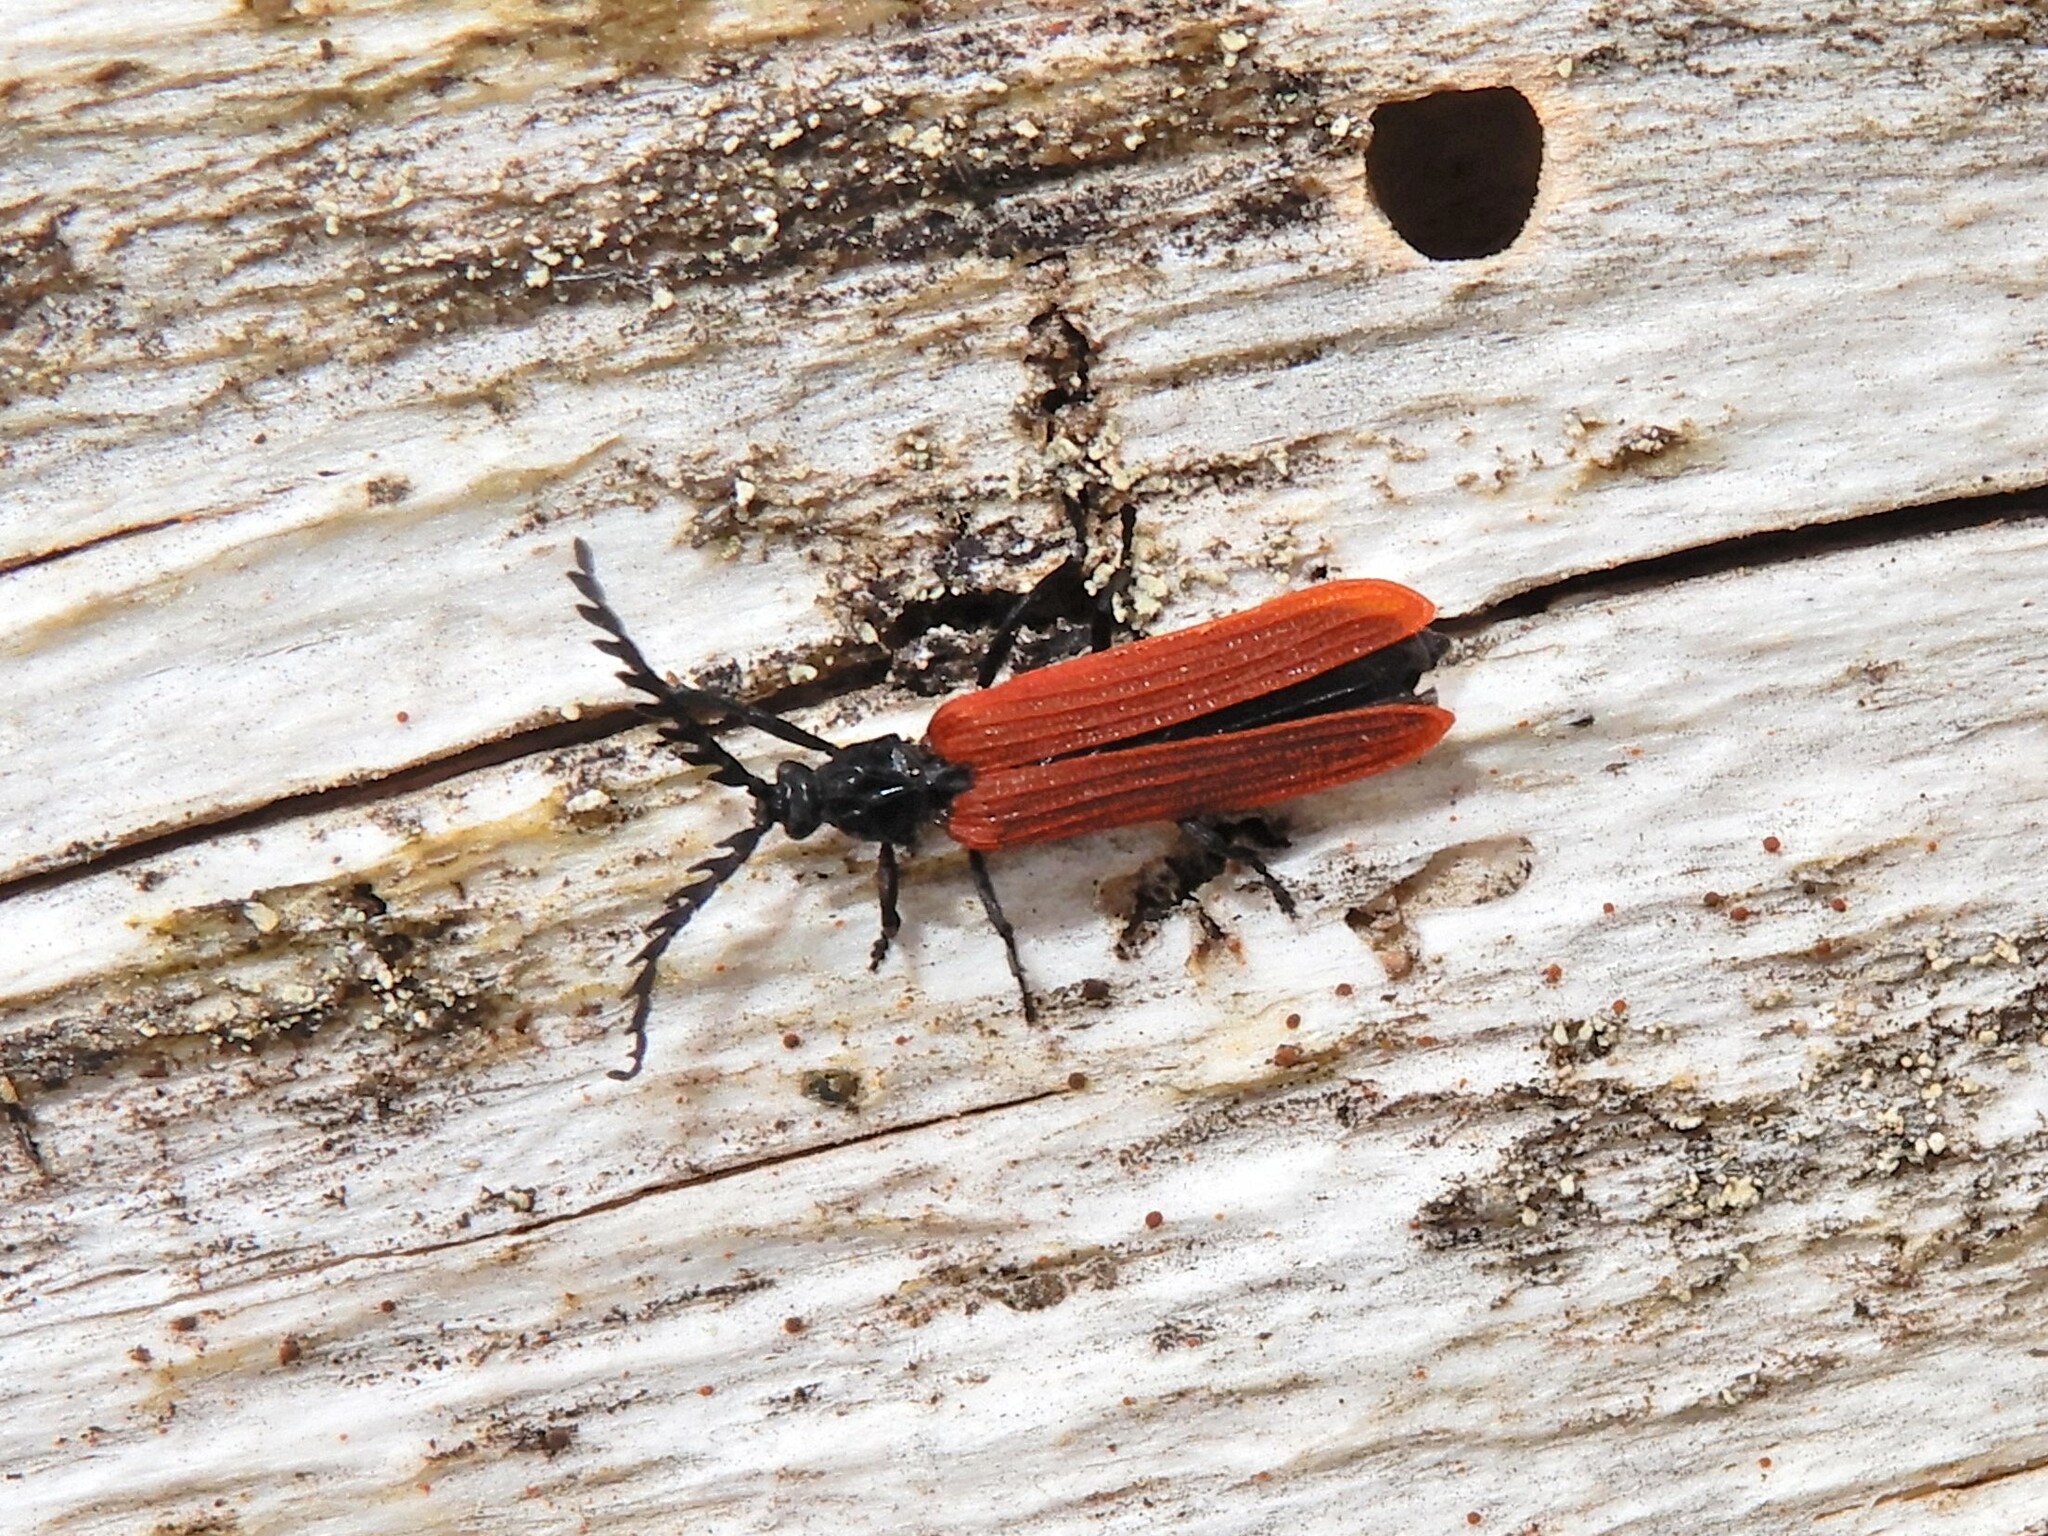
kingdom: Animalia
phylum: Arthropoda
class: Insecta
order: Coleoptera
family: Lycidae
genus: Porrostoma
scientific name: Porrostoma rufipenne
